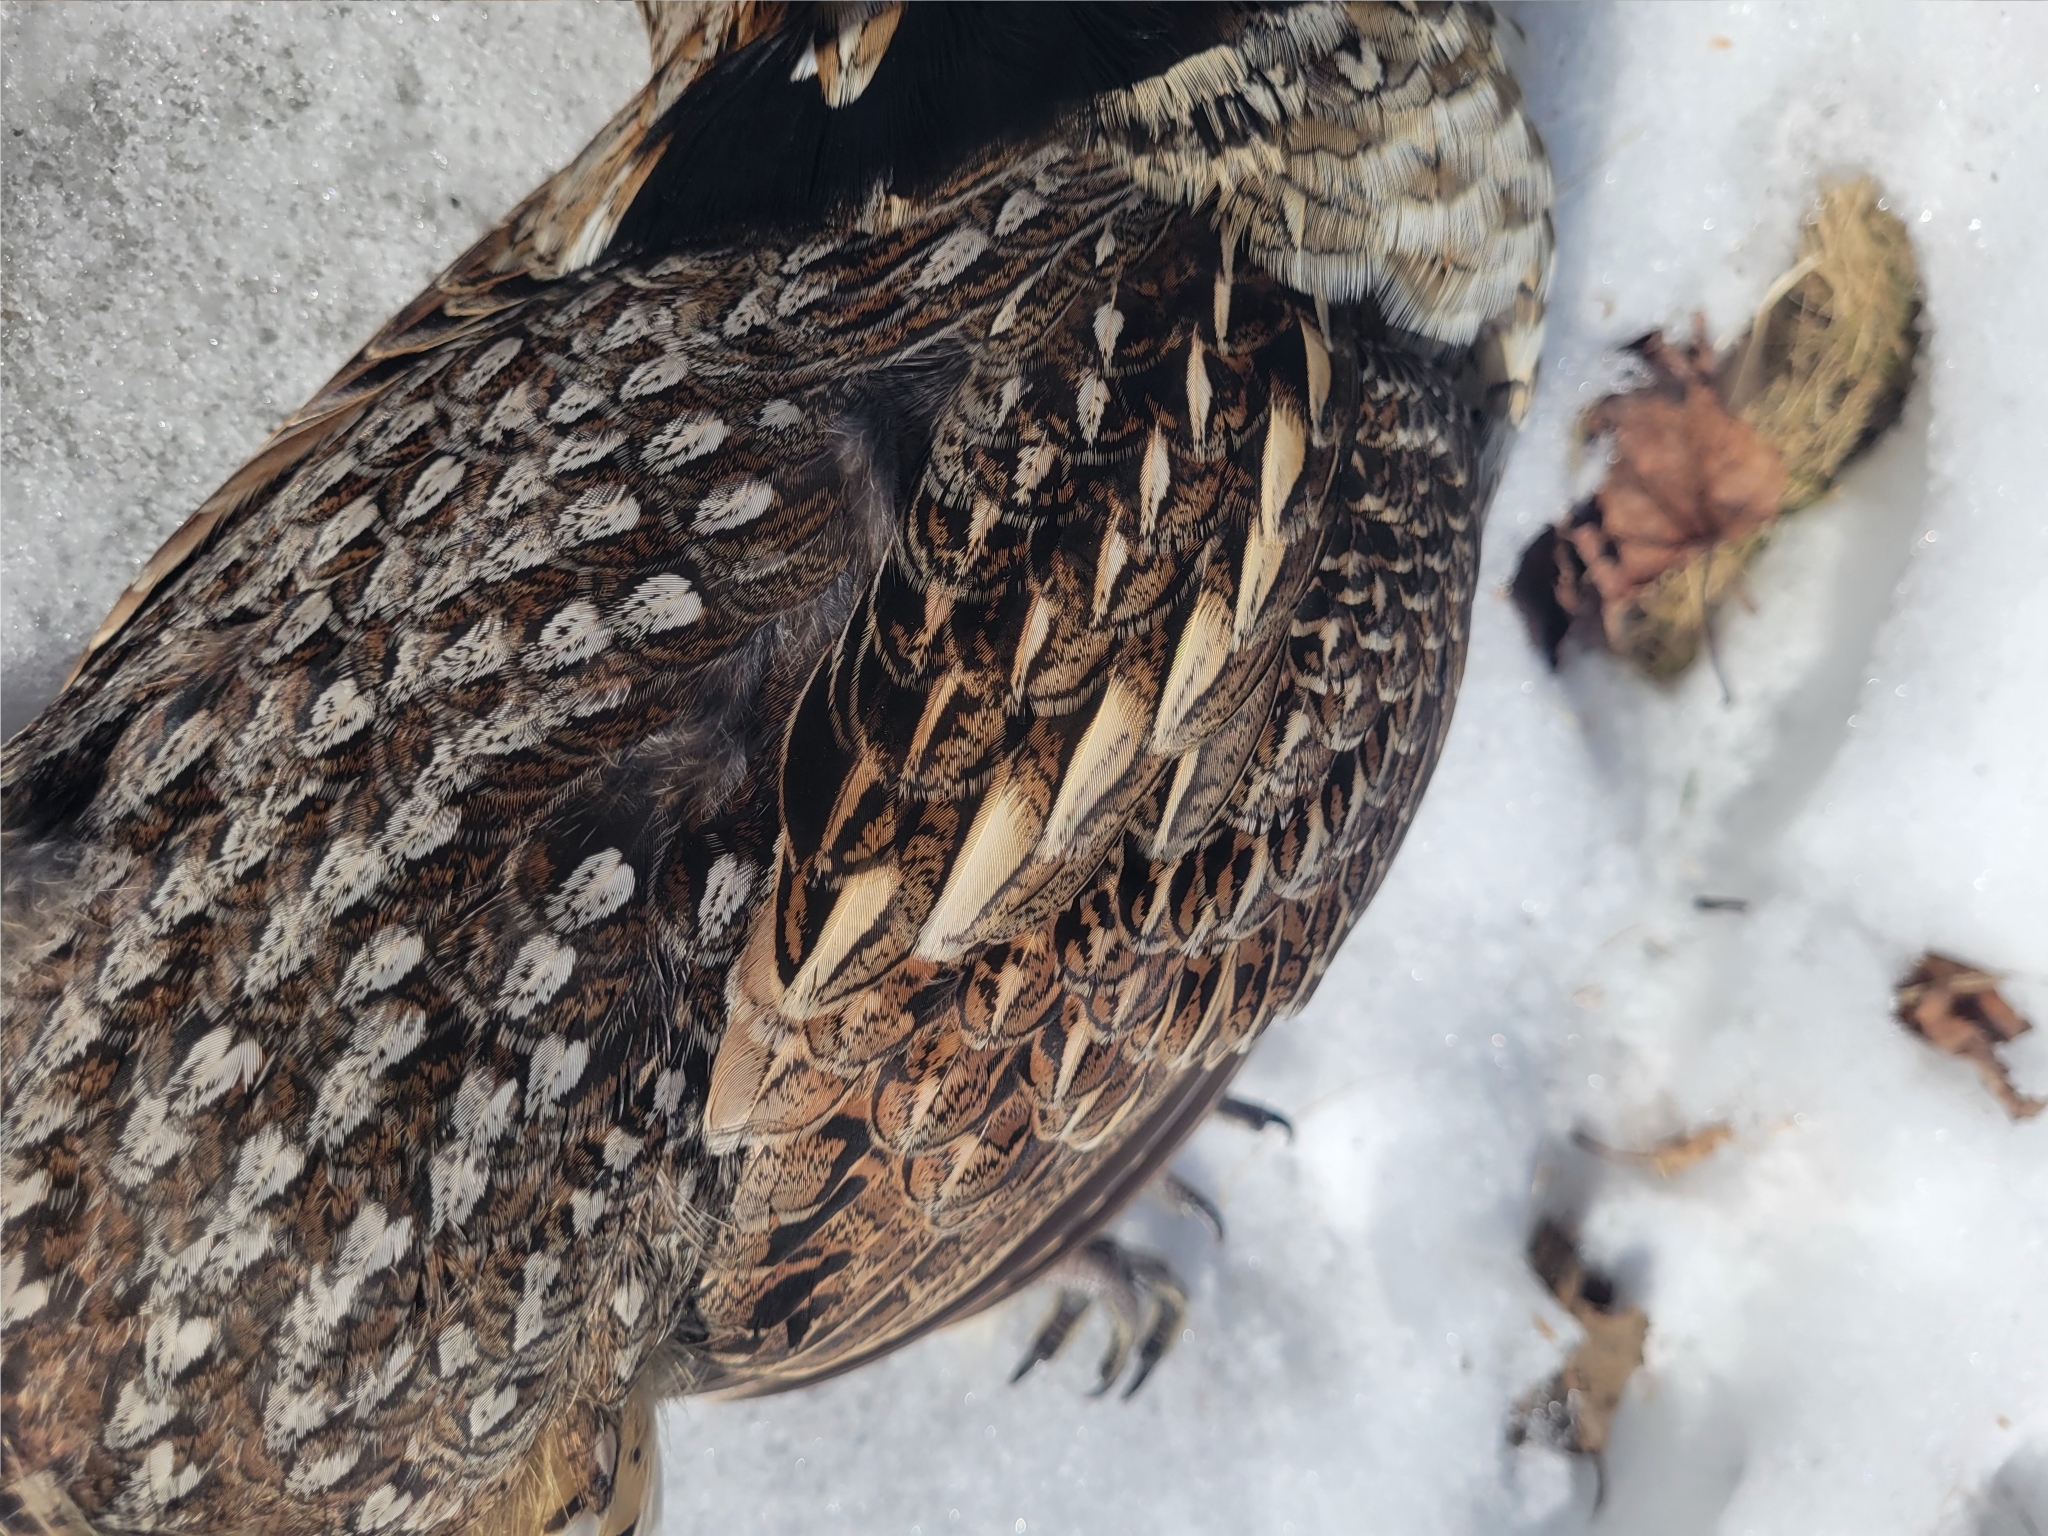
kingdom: Animalia
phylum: Chordata
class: Aves
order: Galliformes
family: Phasianidae
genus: Bonasa
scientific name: Bonasa umbellus
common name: Ruffed grouse
